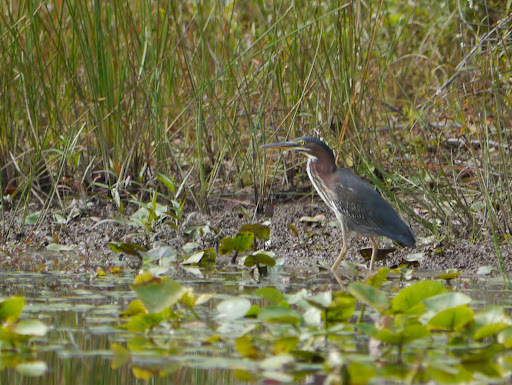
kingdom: Animalia
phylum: Chordata
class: Aves
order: Pelecaniformes
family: Ardeidae
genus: Butorides
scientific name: Butorides virescens
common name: Green heron
